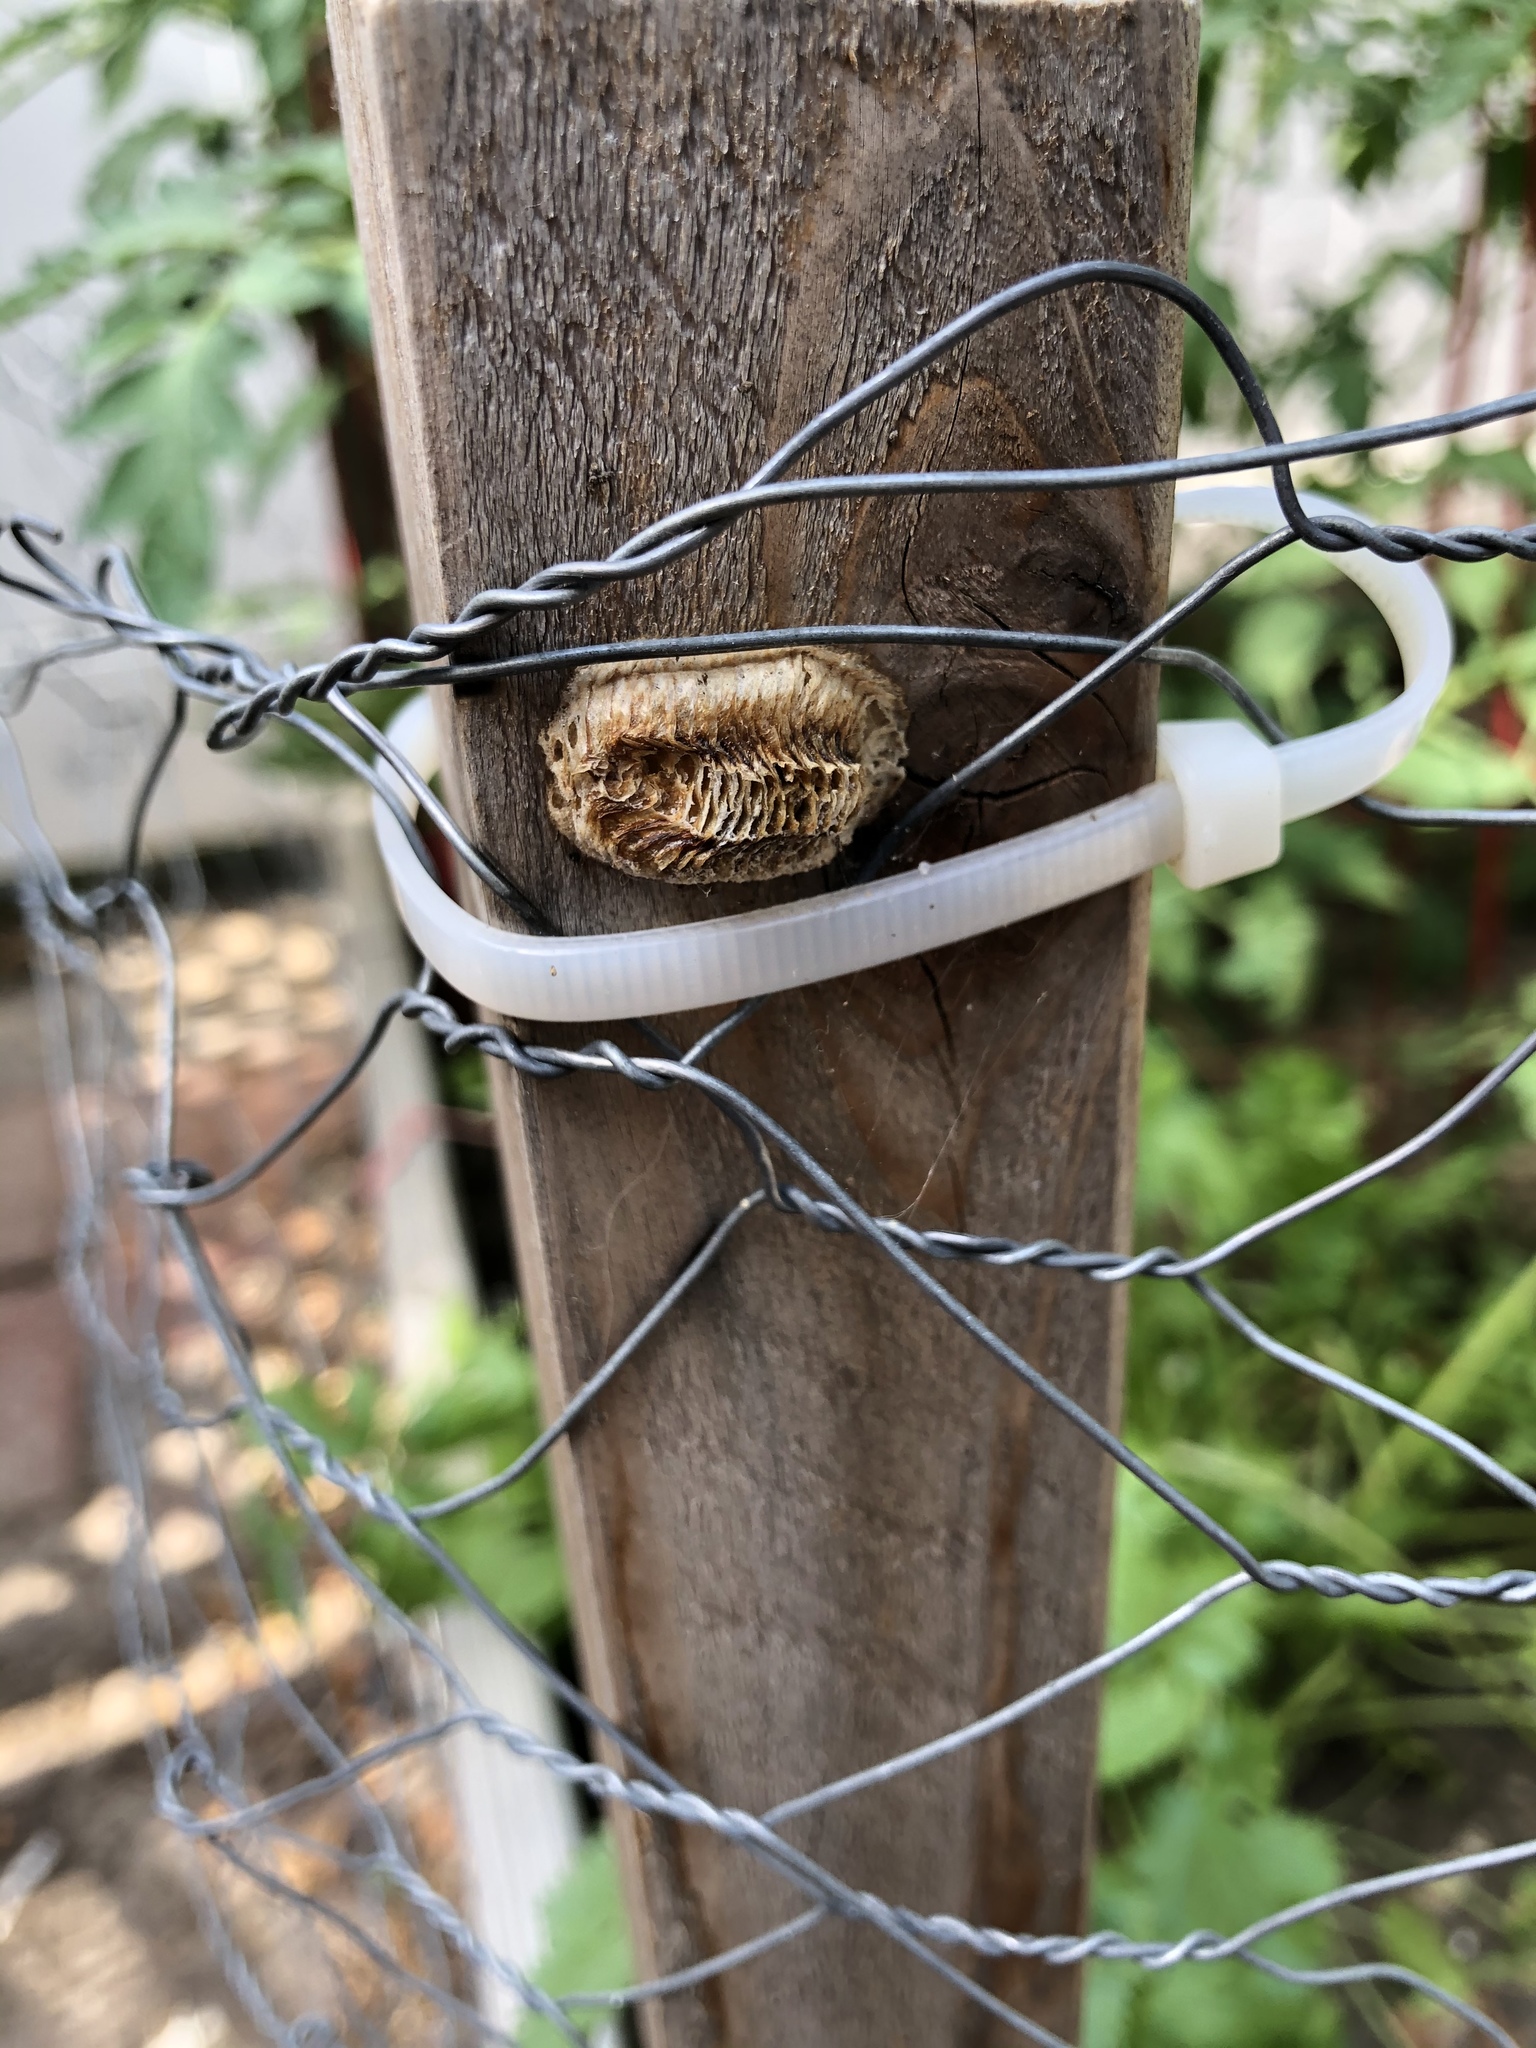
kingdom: Animalia
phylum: Arthropoda
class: Insecta
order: Mantodea
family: Mantidae
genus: Stagmomantis
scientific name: Stagmomantis carolina
